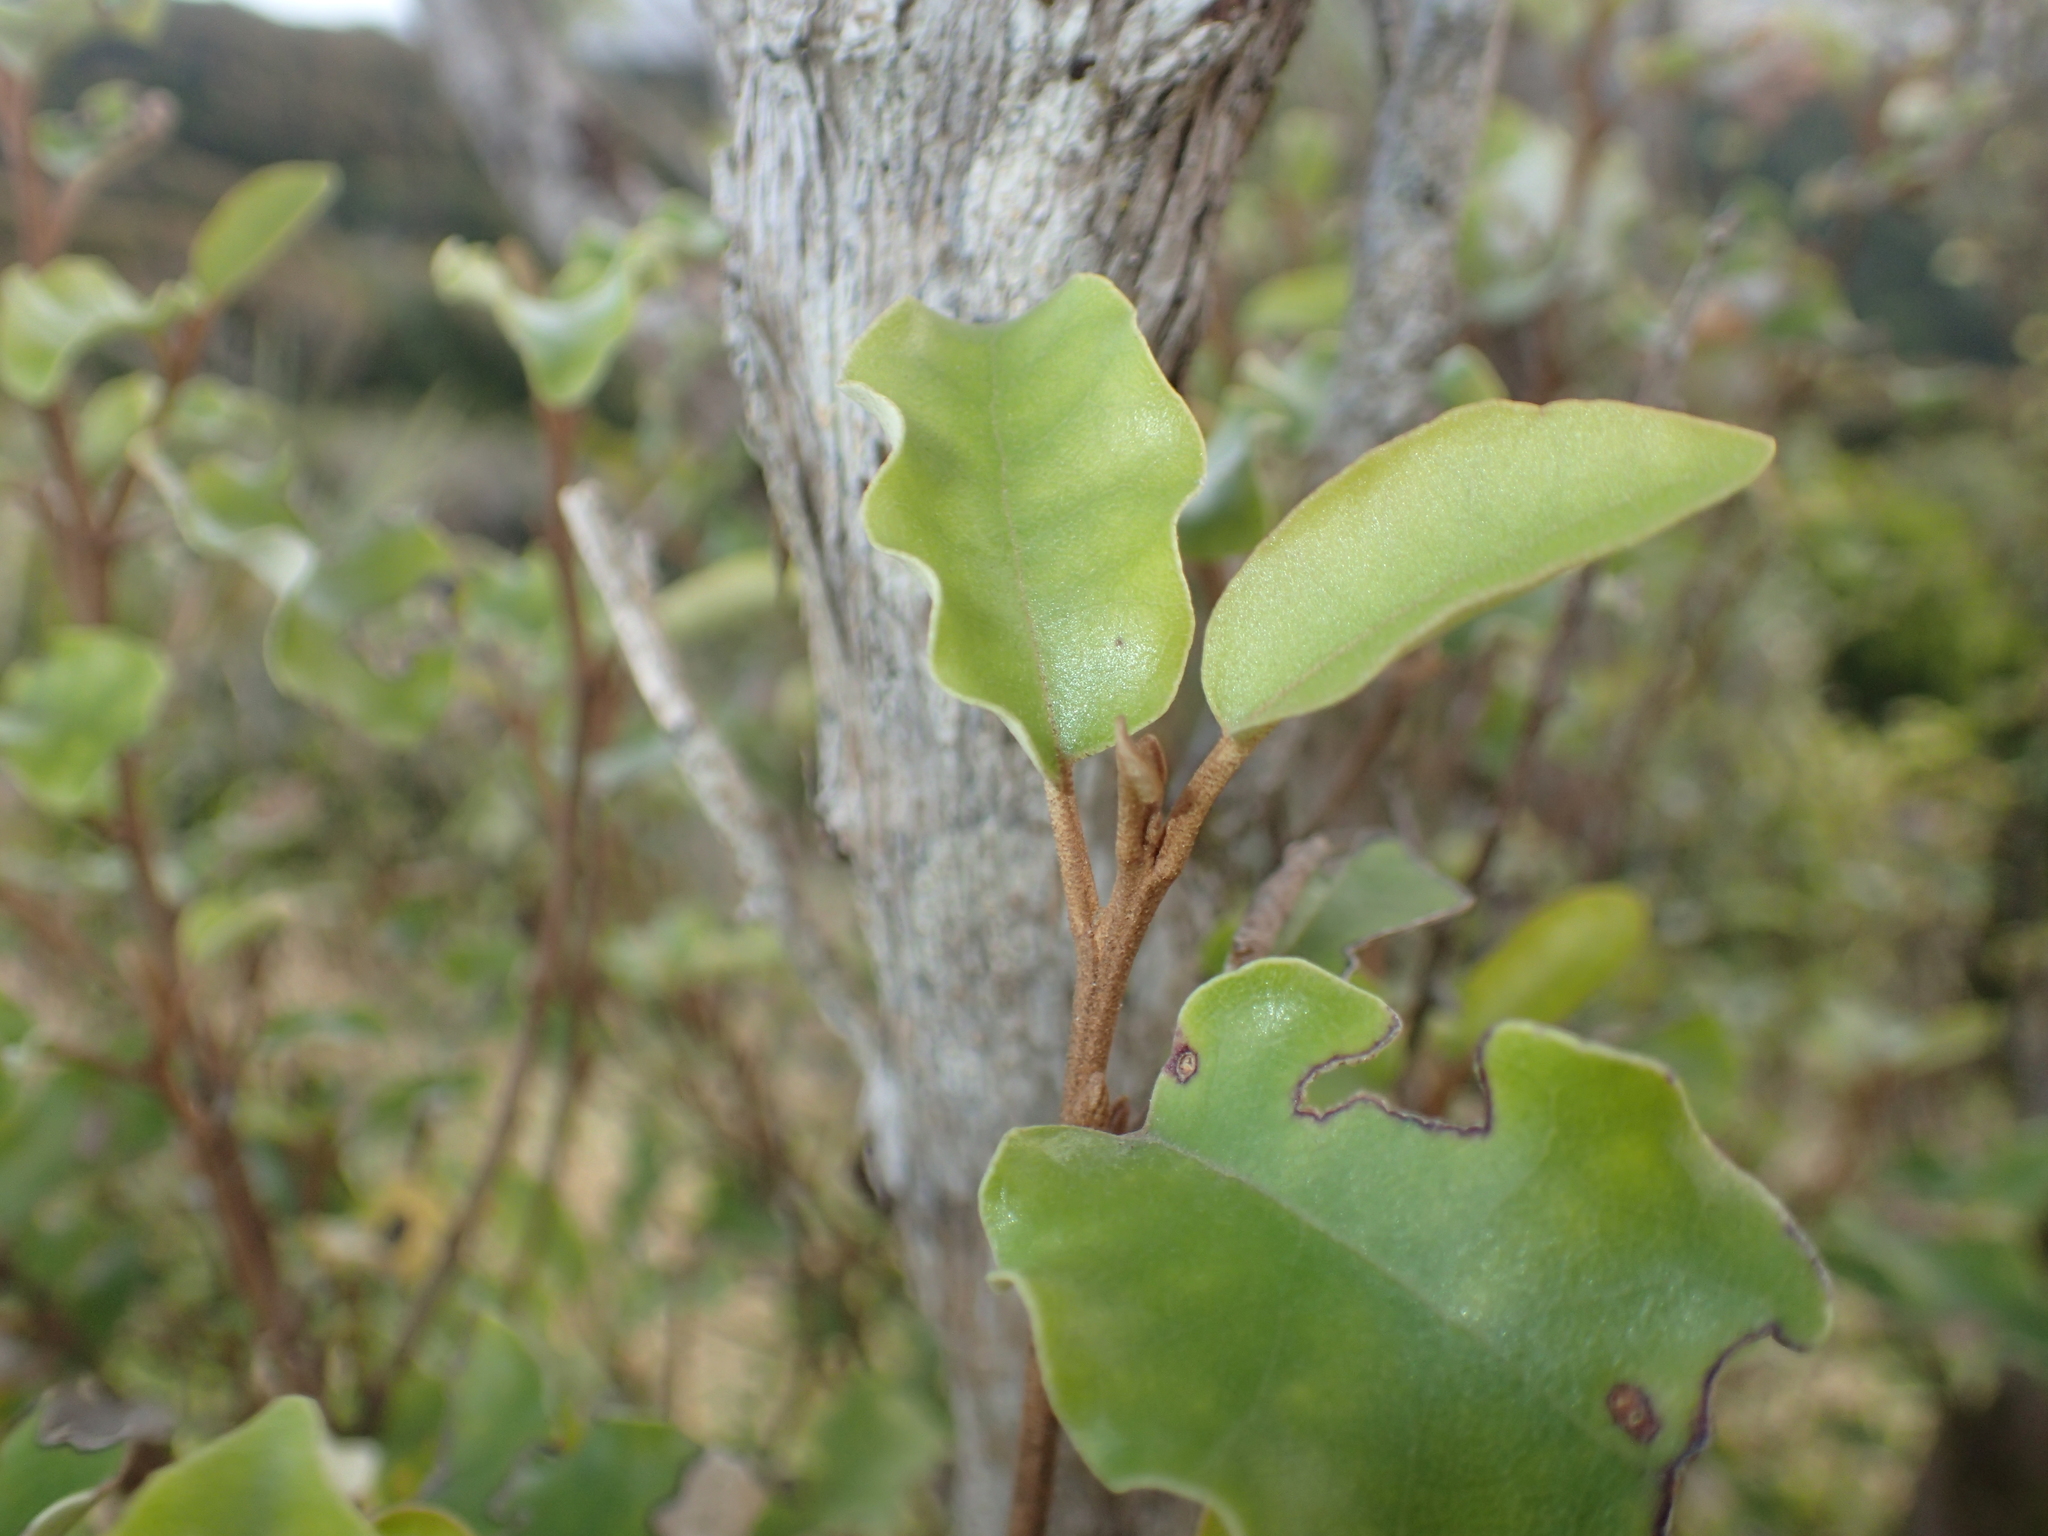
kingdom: Plantae
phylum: Tracheophyta
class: Magnoliopsida
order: Asterales
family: Asteraceae
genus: Olearia
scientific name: Olearia paniculata
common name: Akiraho
